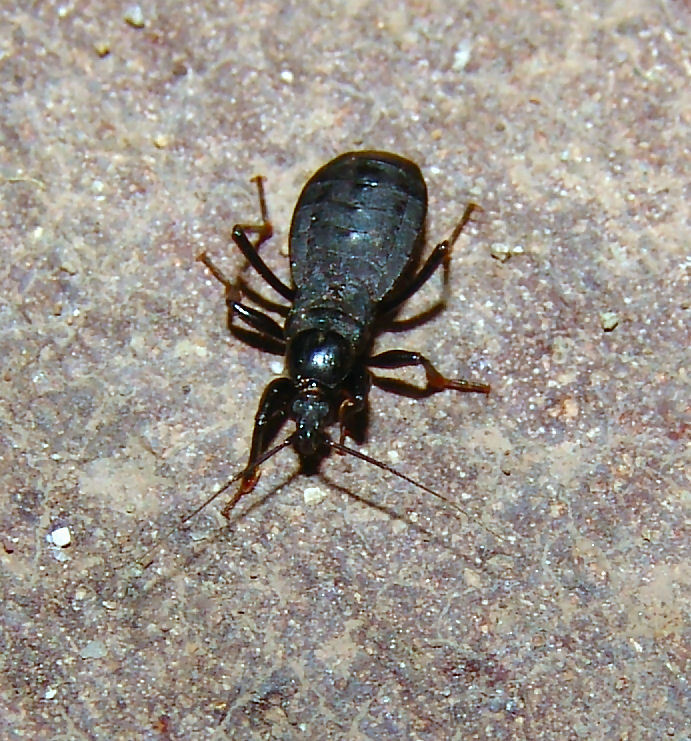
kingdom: Animalia
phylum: Arthropoda
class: Insecta
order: Hemiptera
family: Reduviidae
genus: Melanolestes
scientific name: Melanolestes picipes
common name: Assassin bug
